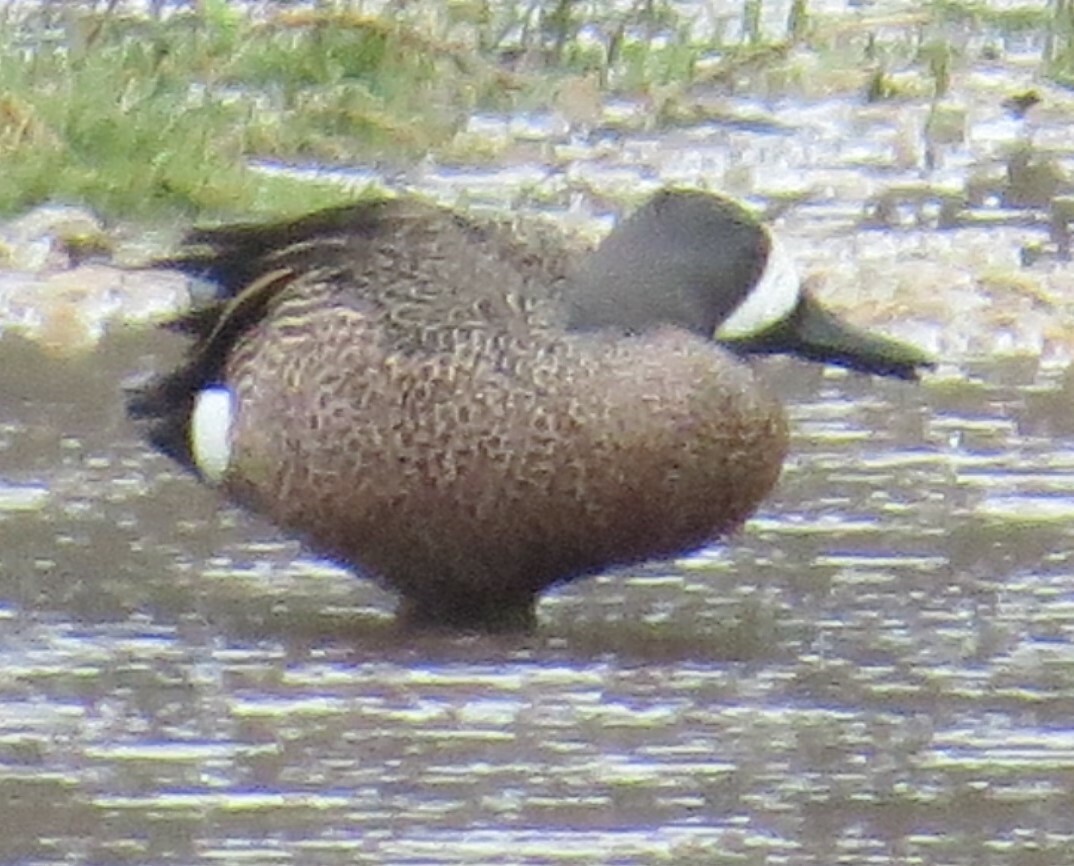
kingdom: Animalia
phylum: Chordata
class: Aves
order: Anseriformes
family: Anatidae
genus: Spatula
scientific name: Spatula discors
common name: Blue-winged teal
